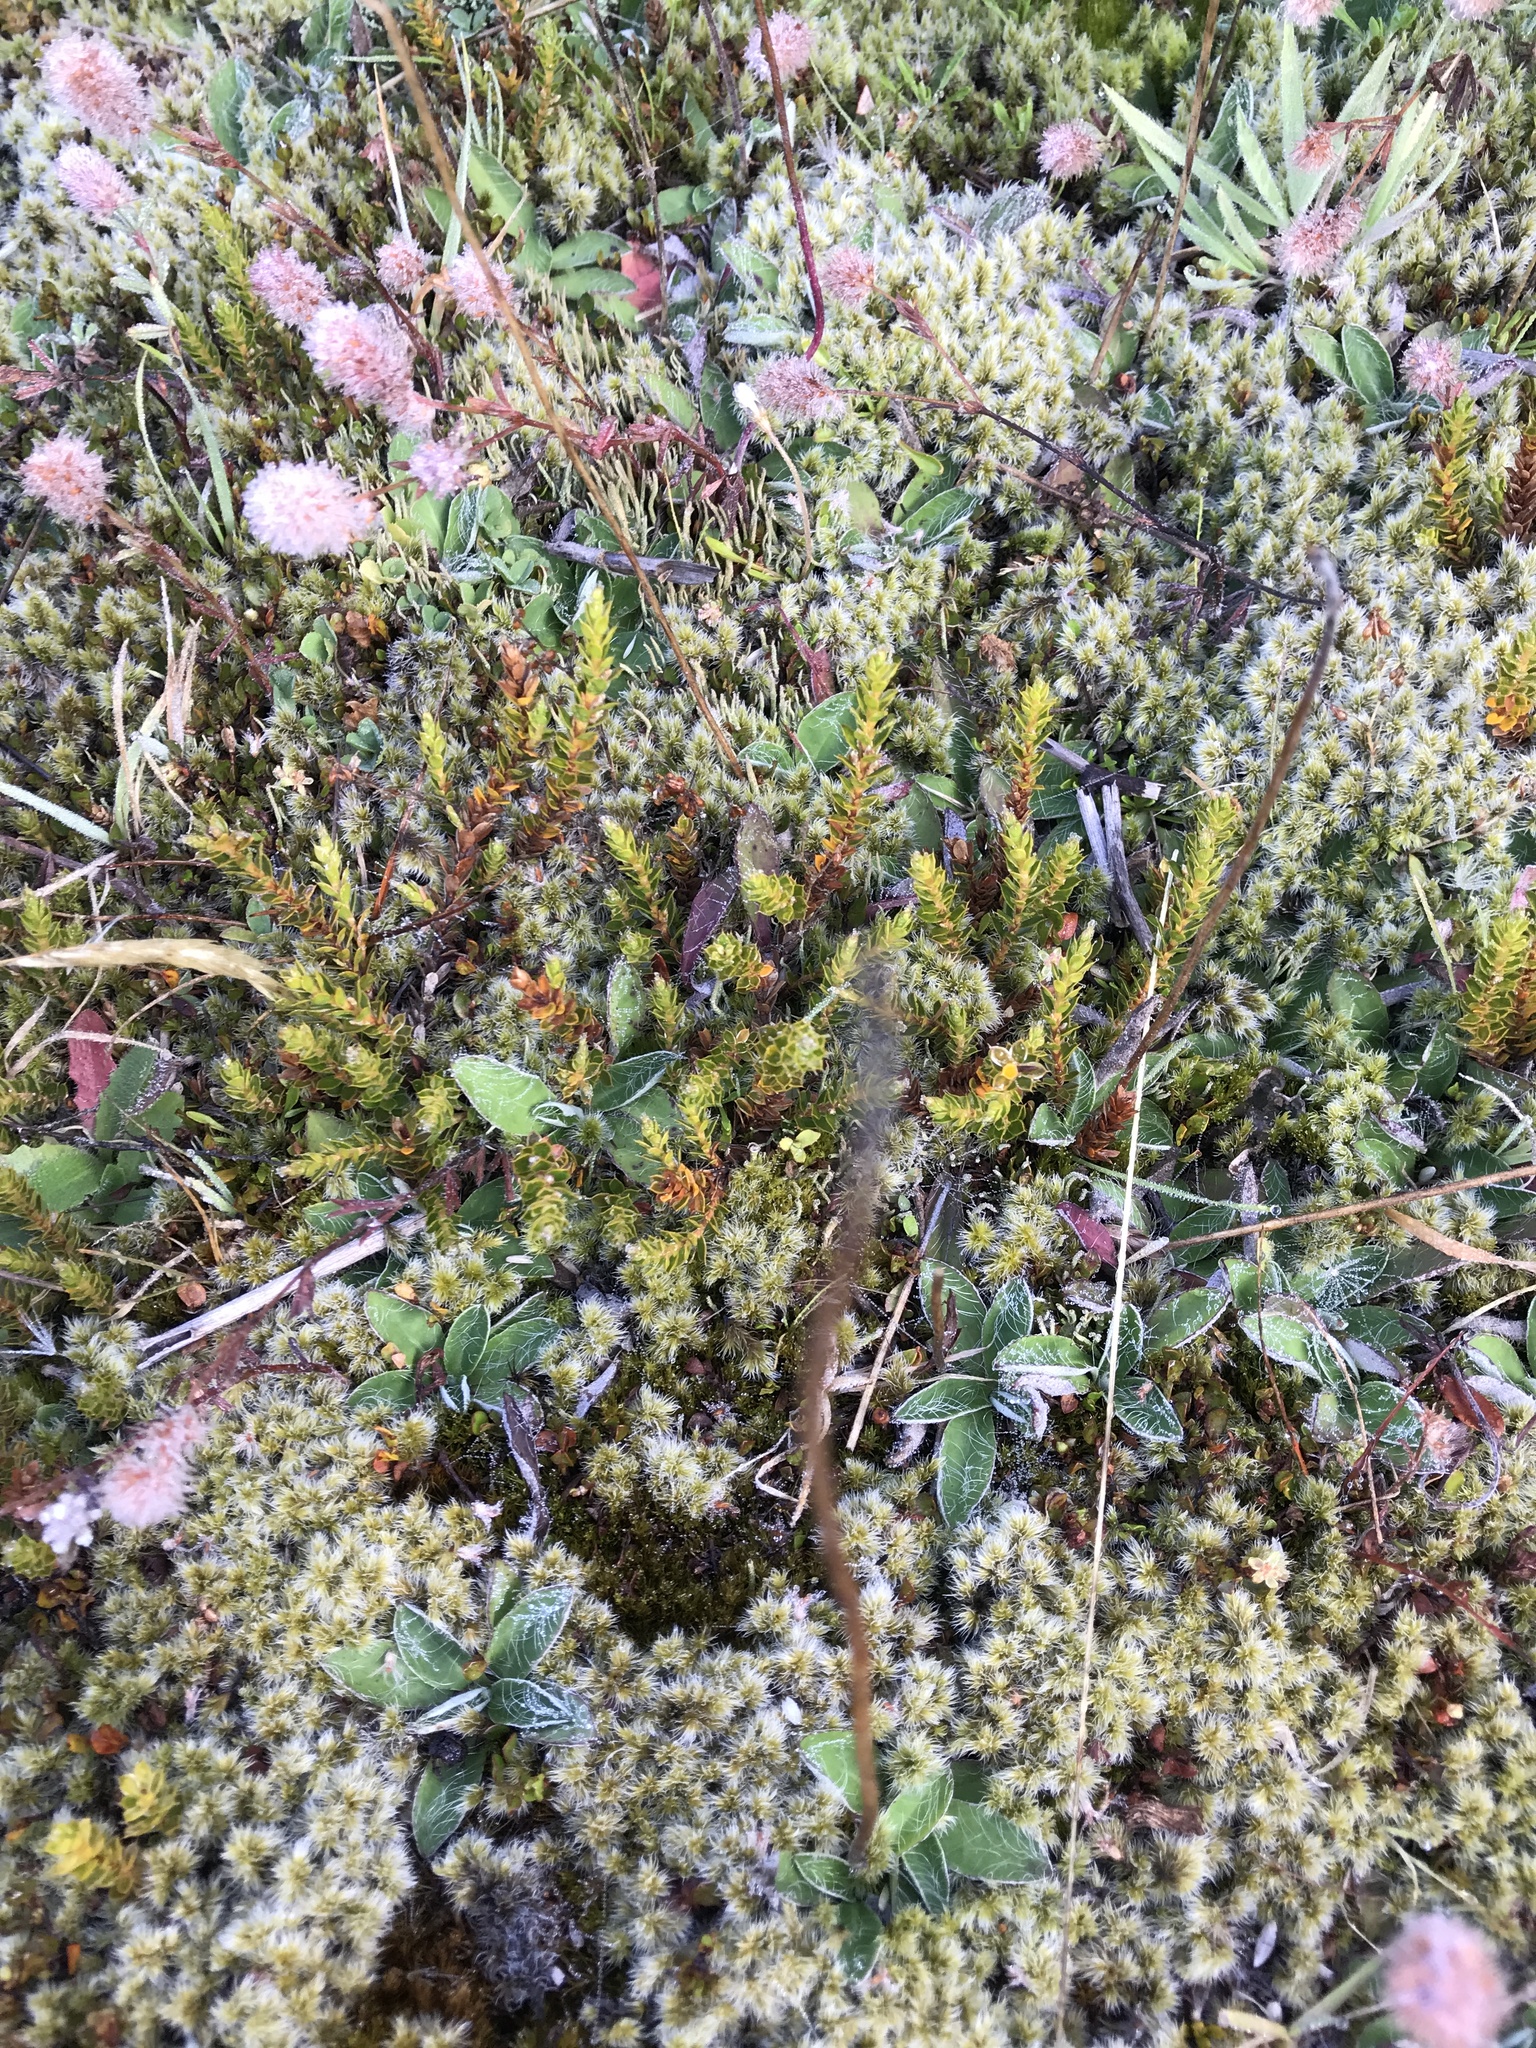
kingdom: Plantae
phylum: Tracheophyta
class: Magnoliopsida
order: Ericales
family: Ericaceae
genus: Styphelia
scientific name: Styphelia nesophila
